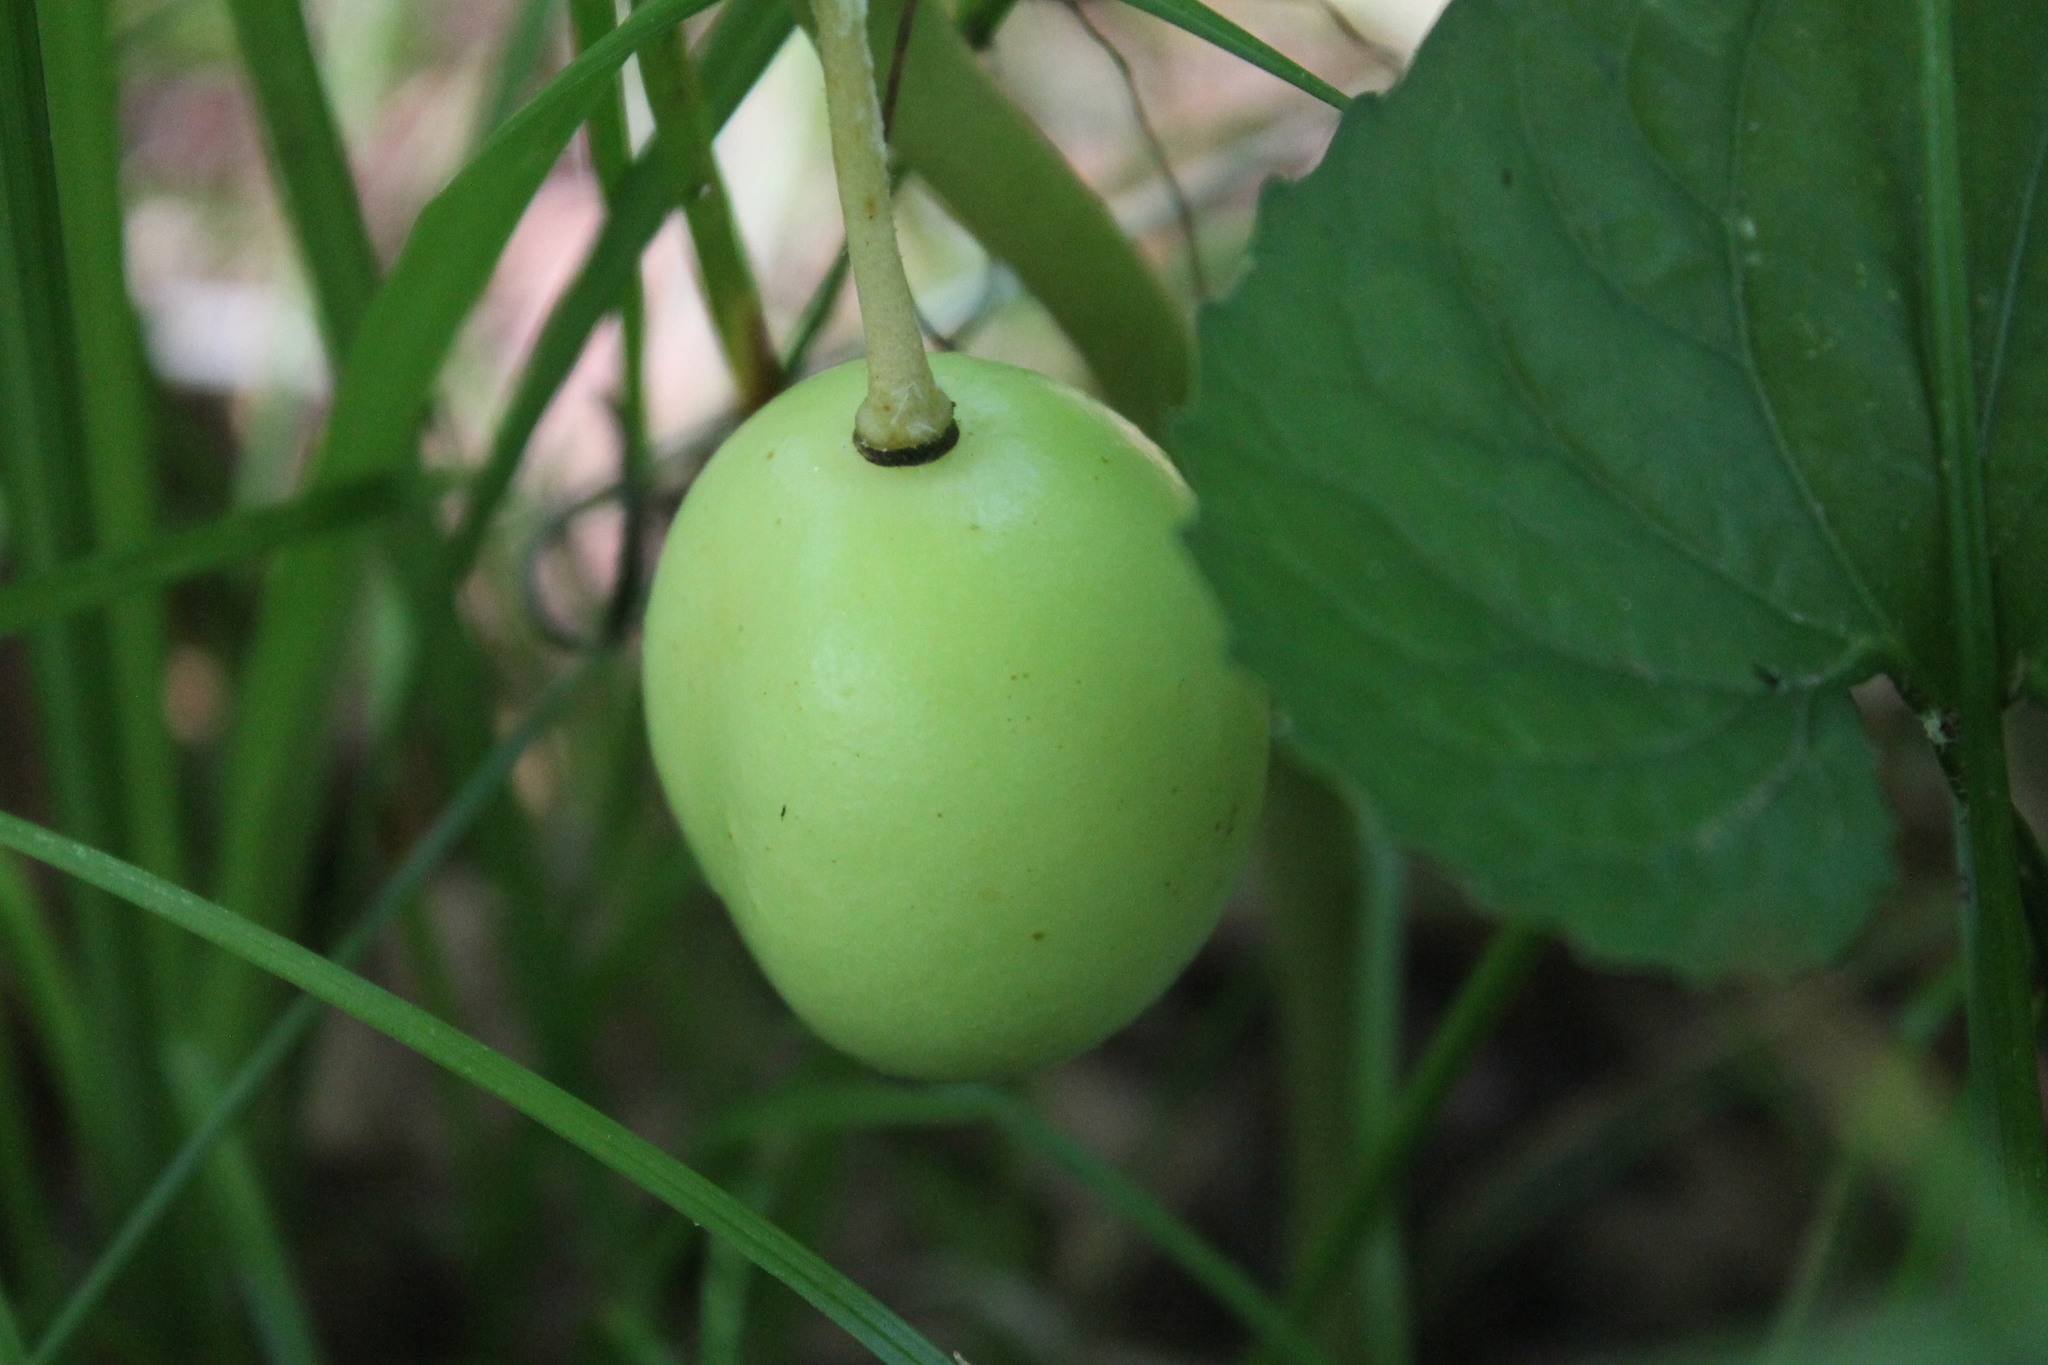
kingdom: Plantae
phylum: Tracheophyta
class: Magnoliopsida
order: Ranunculales
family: Berberidaceae
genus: Podophyllum
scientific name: Podophyllum peltatum
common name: Wild mandrake
